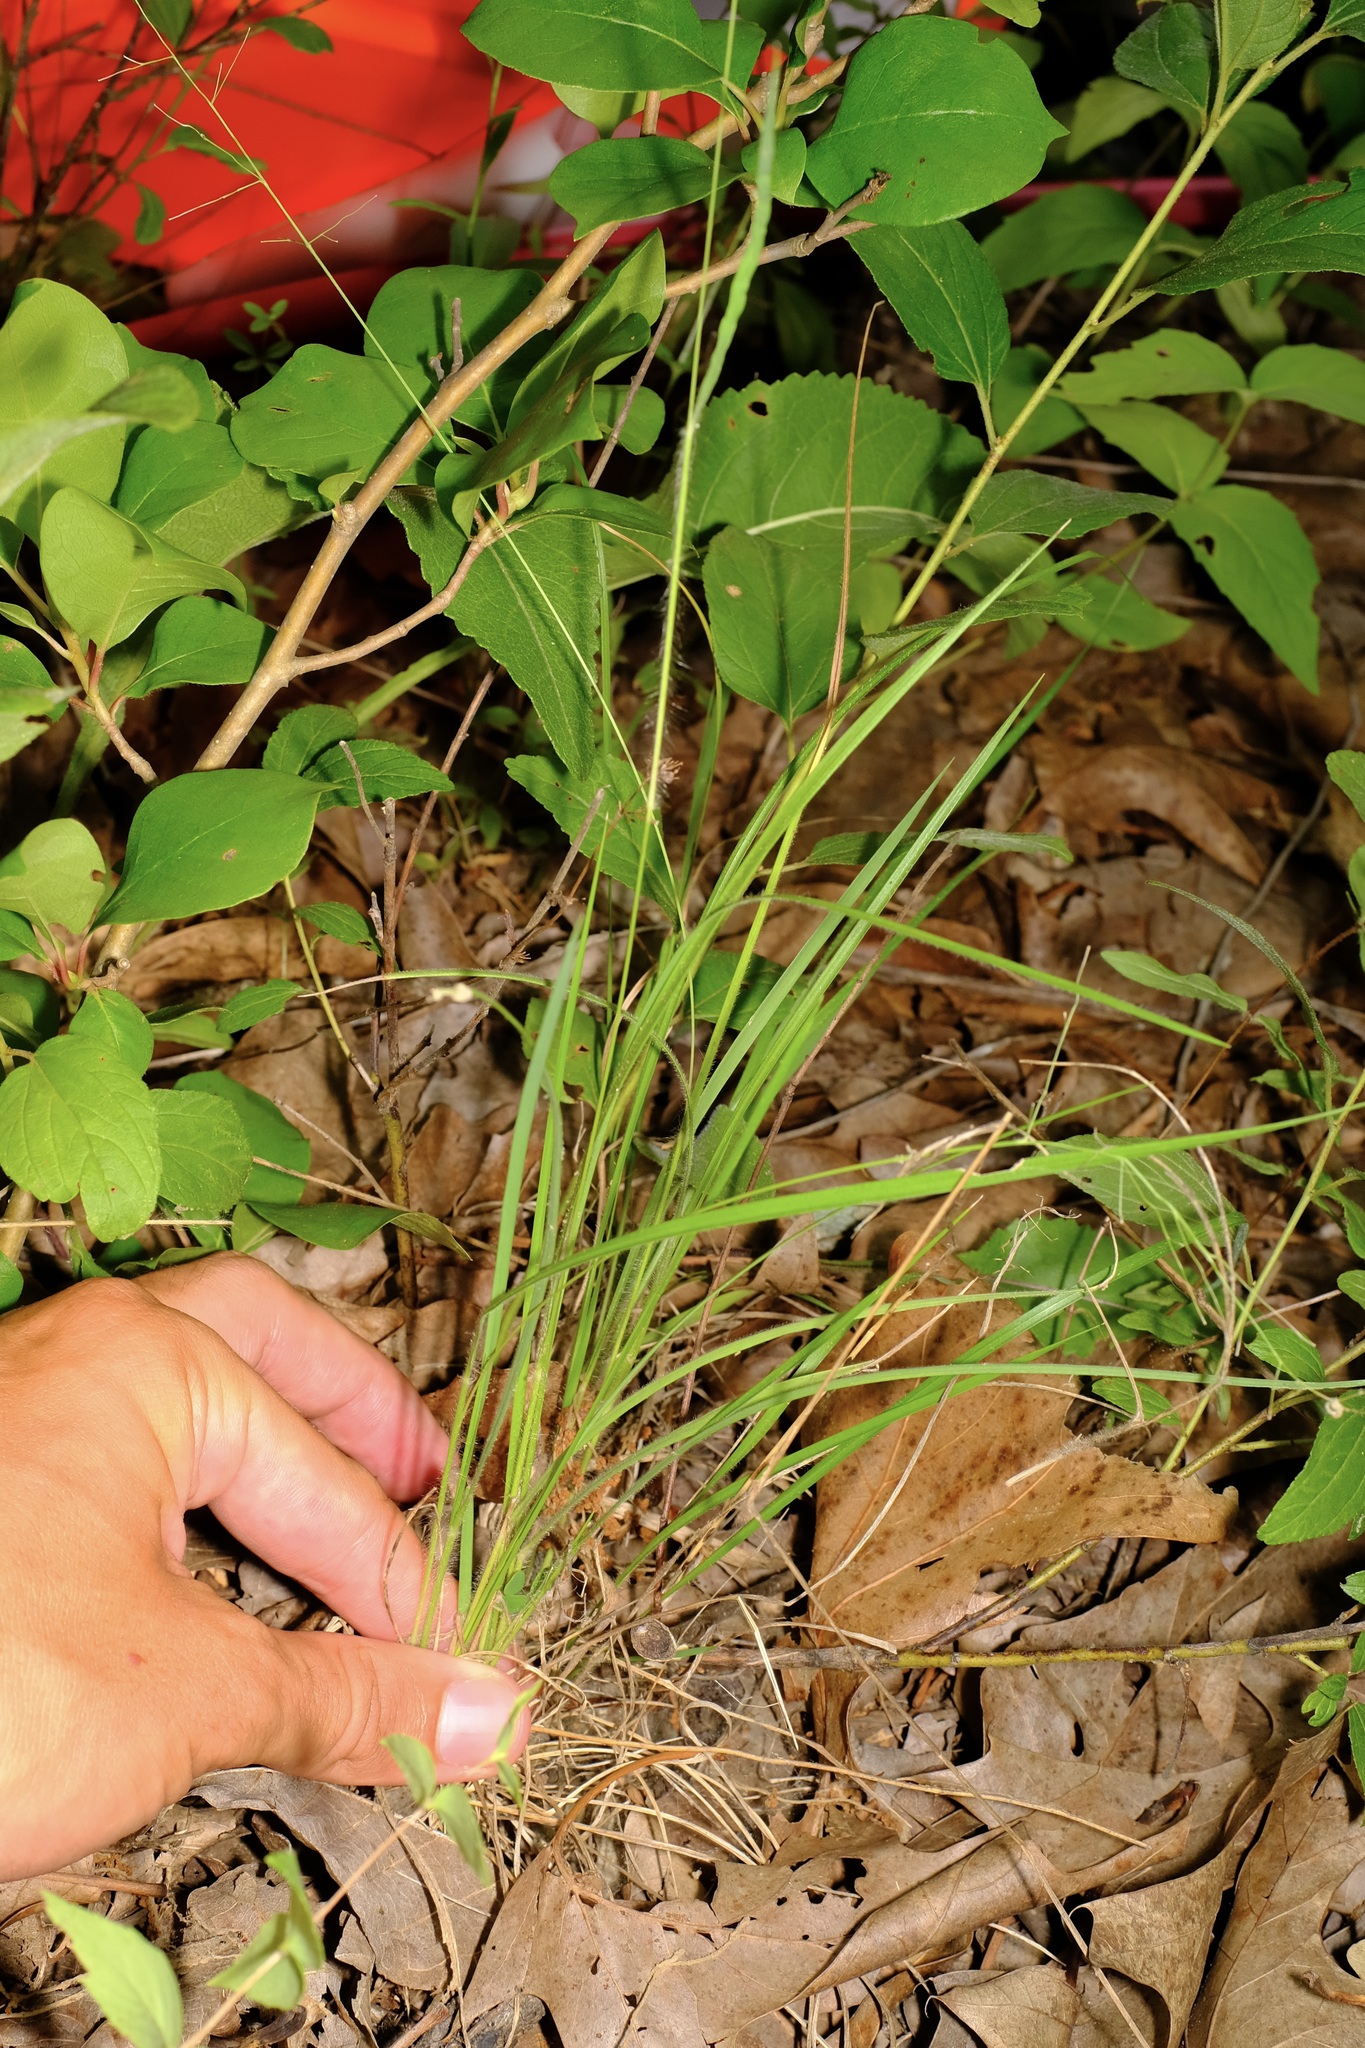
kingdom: Plantae
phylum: Tracheophyta
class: Liliopsida
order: Poales
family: Poaceae
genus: Dichanthelium
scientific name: Dichanthelium linearifolium
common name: Linear-leaved panicgrass
